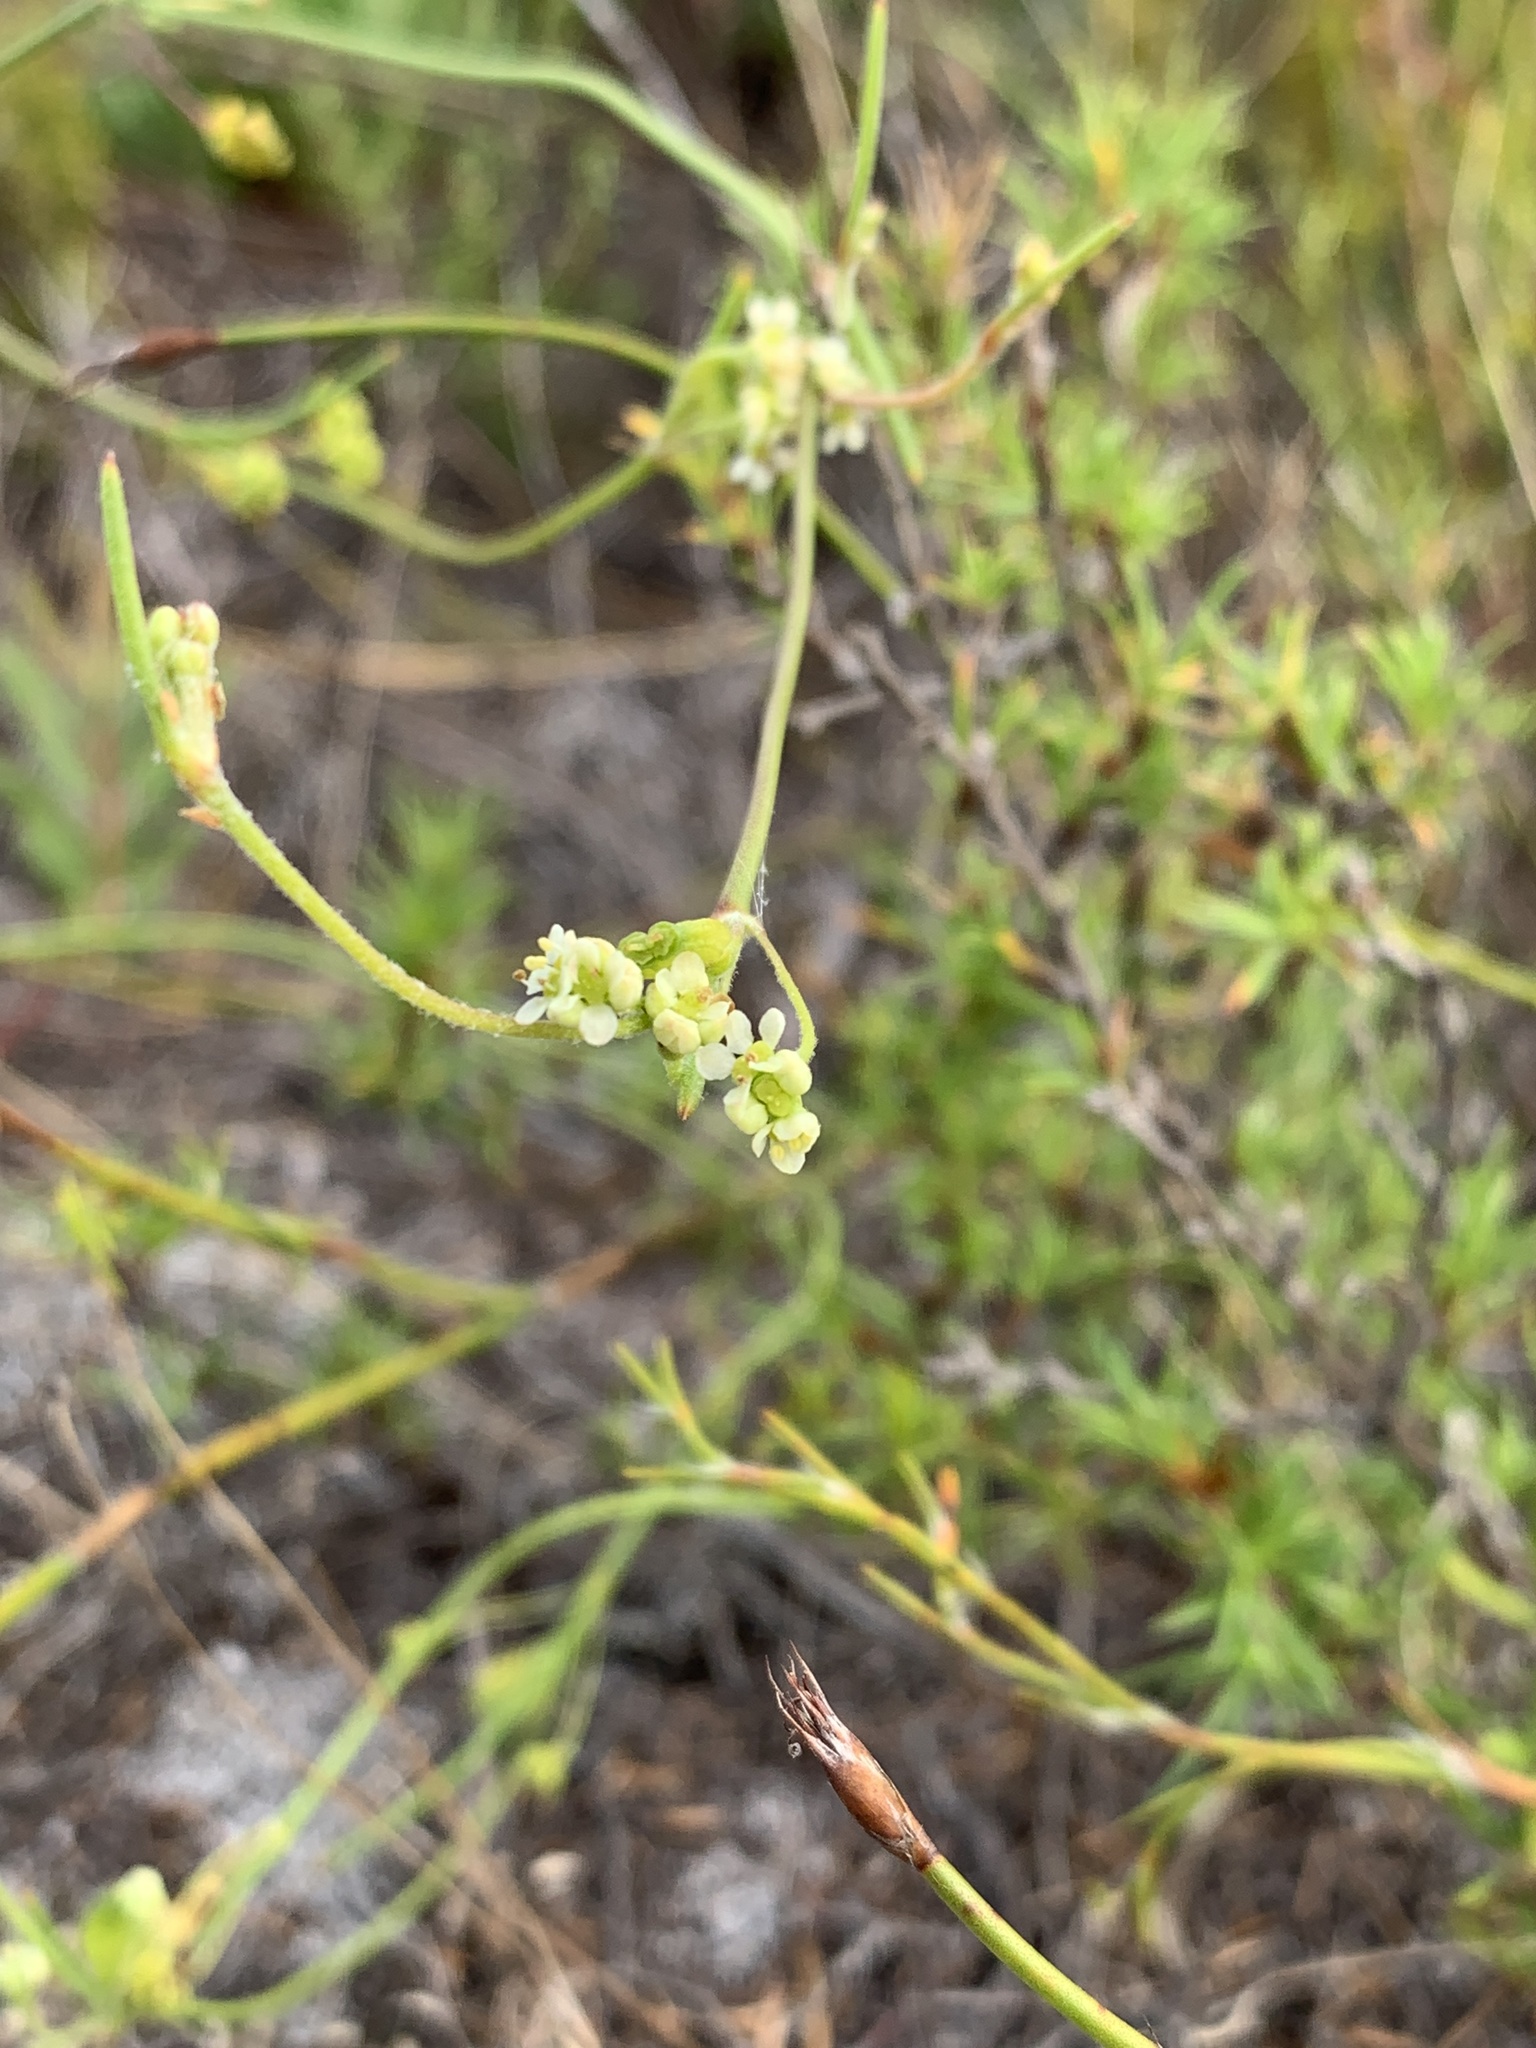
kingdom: Plantae
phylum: Tracheophyta
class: Magnoliopsida
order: Apiales
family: Apiaceae
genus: Centella
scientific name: Centella macrocarpa
